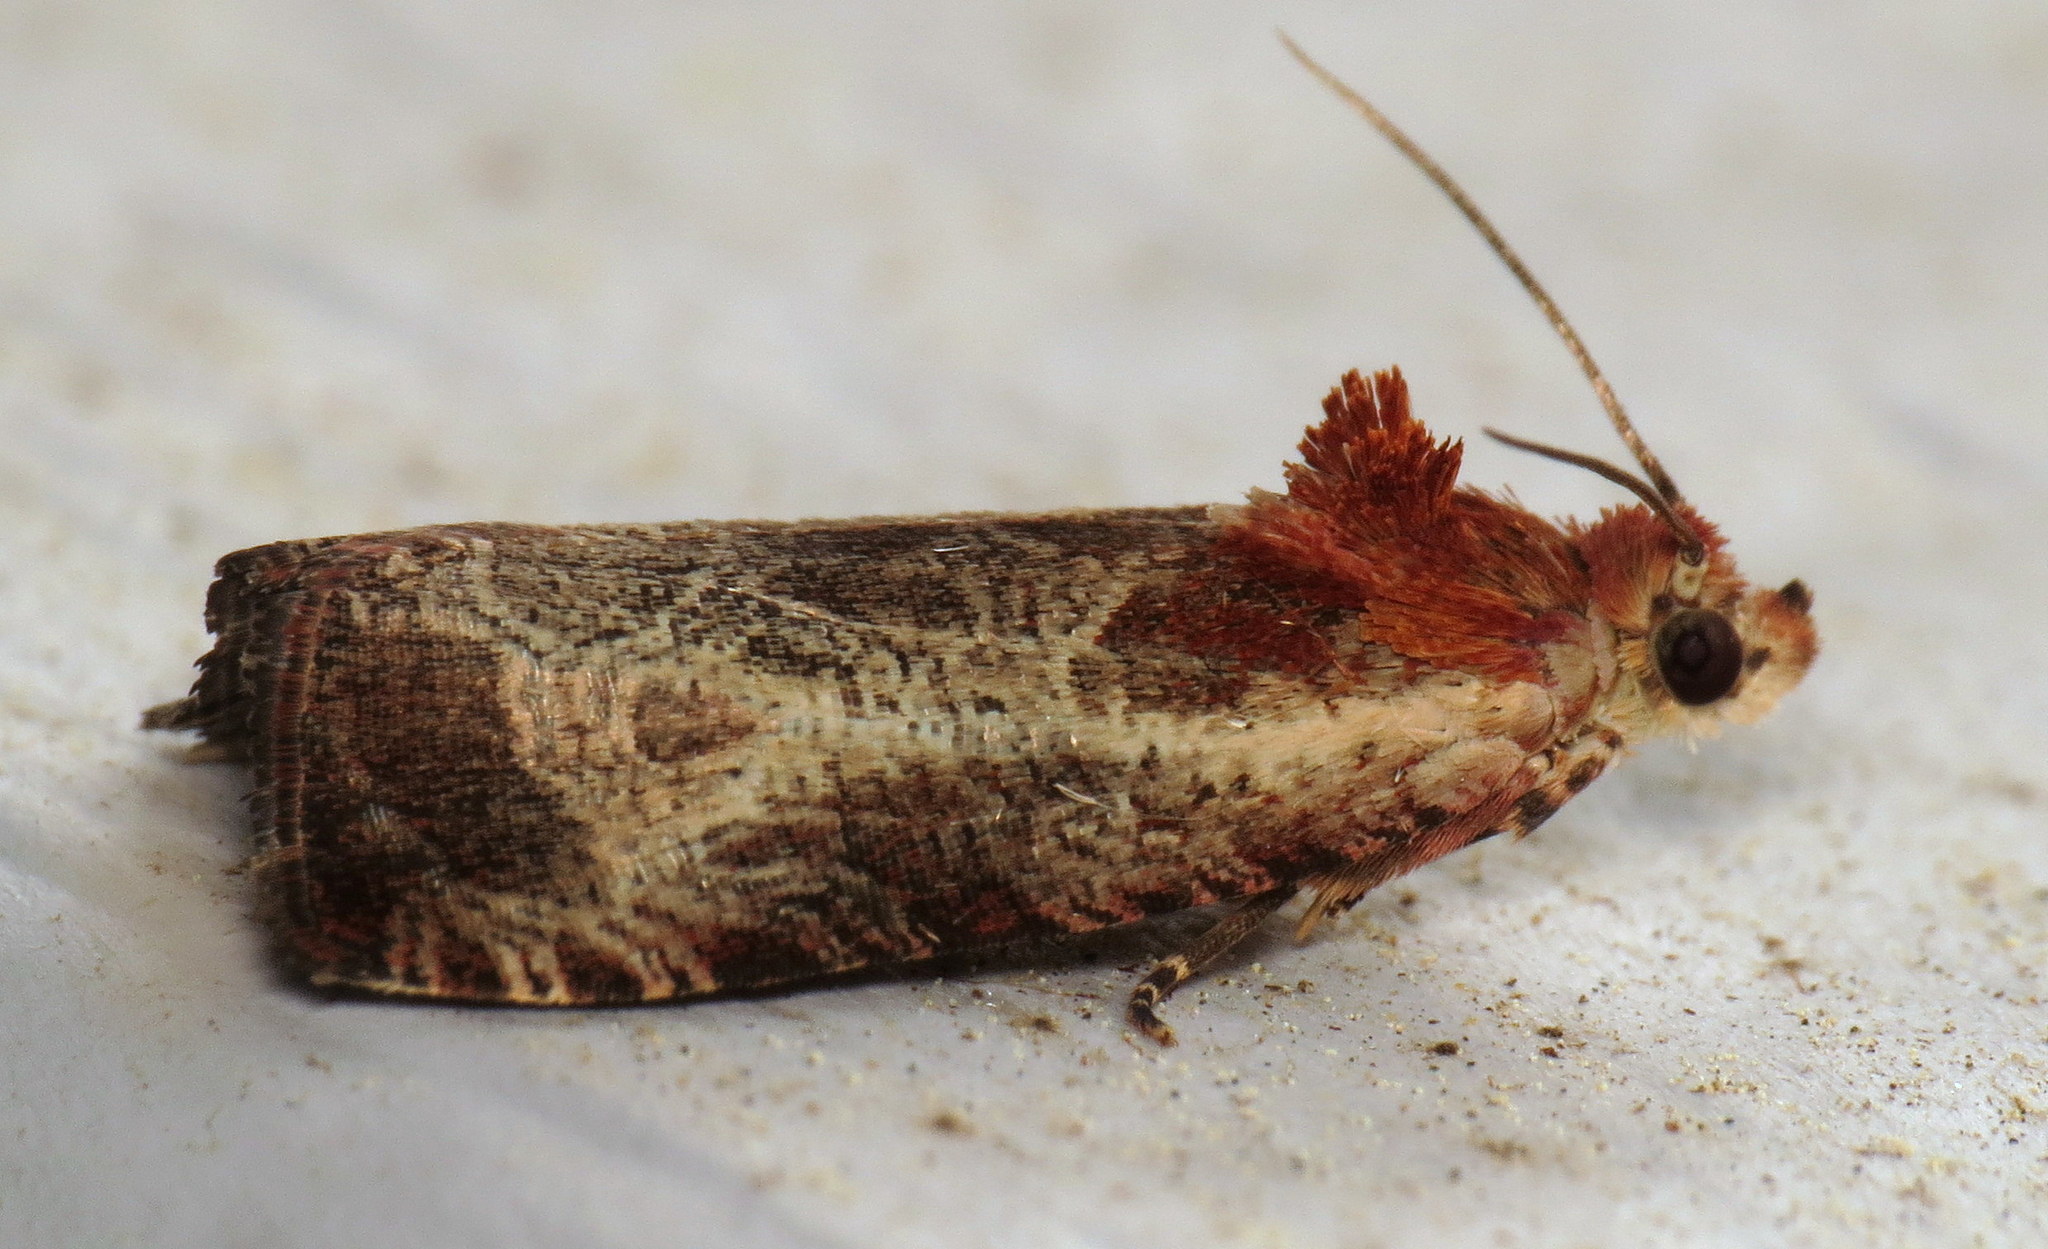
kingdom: Animalia
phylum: Arthropoda
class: Insecta
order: Lepidoptera
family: Tortricidae
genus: Olethreutes
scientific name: Olethreutes inornatana
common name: Inornate olethreutes moth
